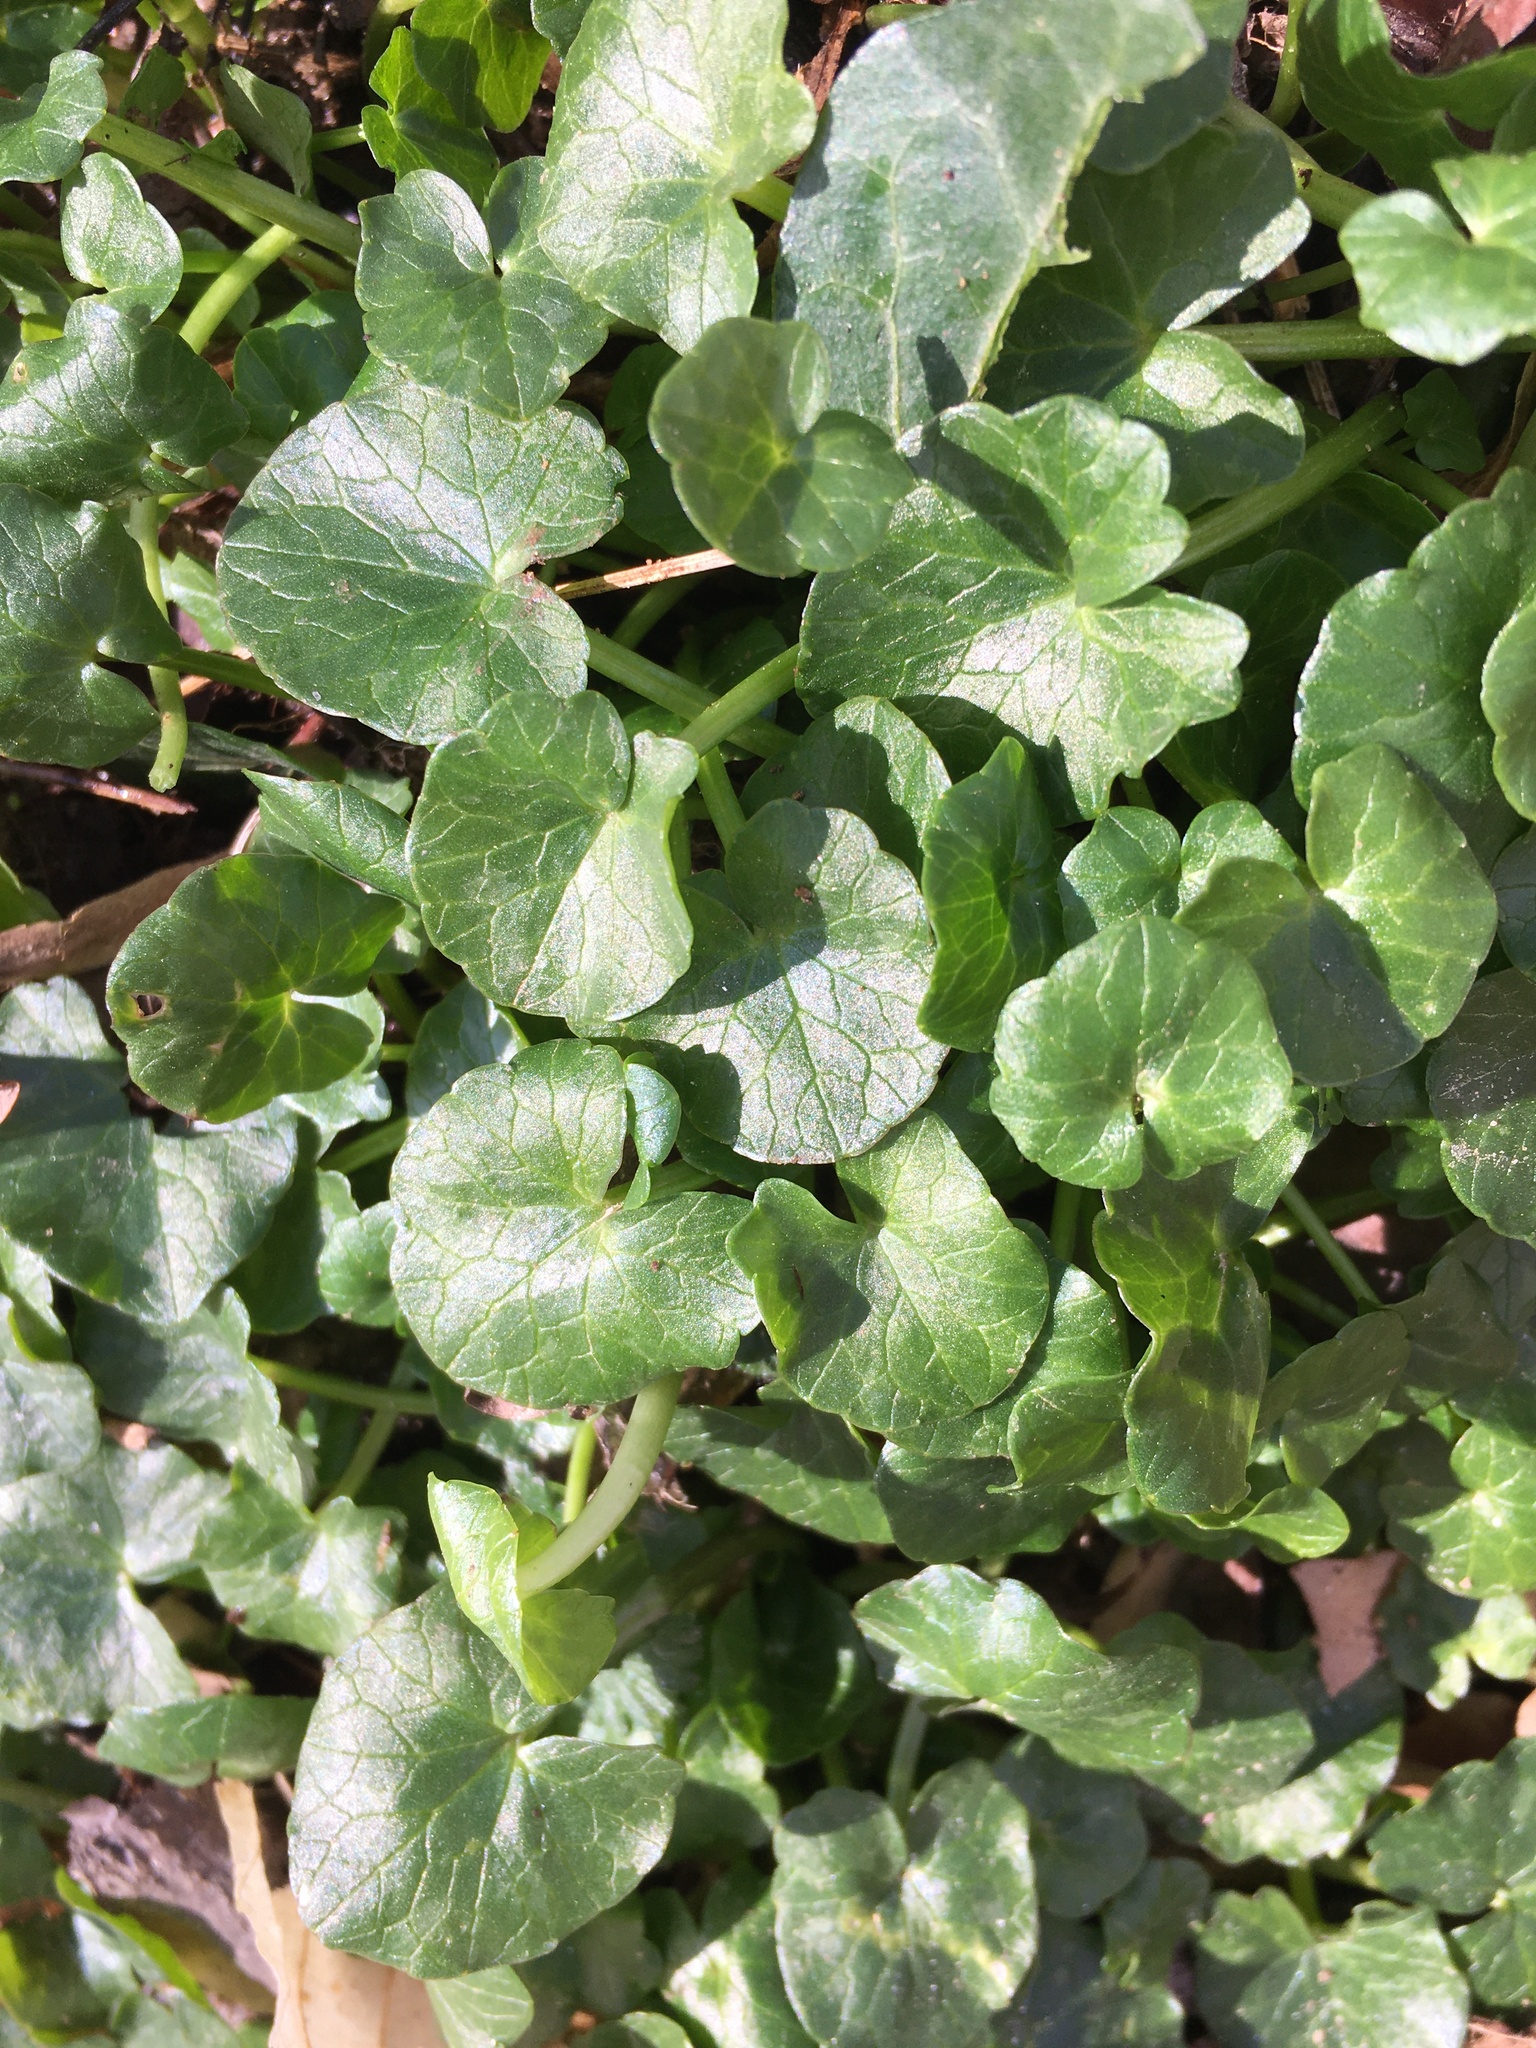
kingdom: Plantae
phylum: Tracheophyta
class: Magnoliopsida
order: Ranunculales
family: Ranunculaceae
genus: Ficaria
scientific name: Ficaria verna
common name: Lesser celandine
